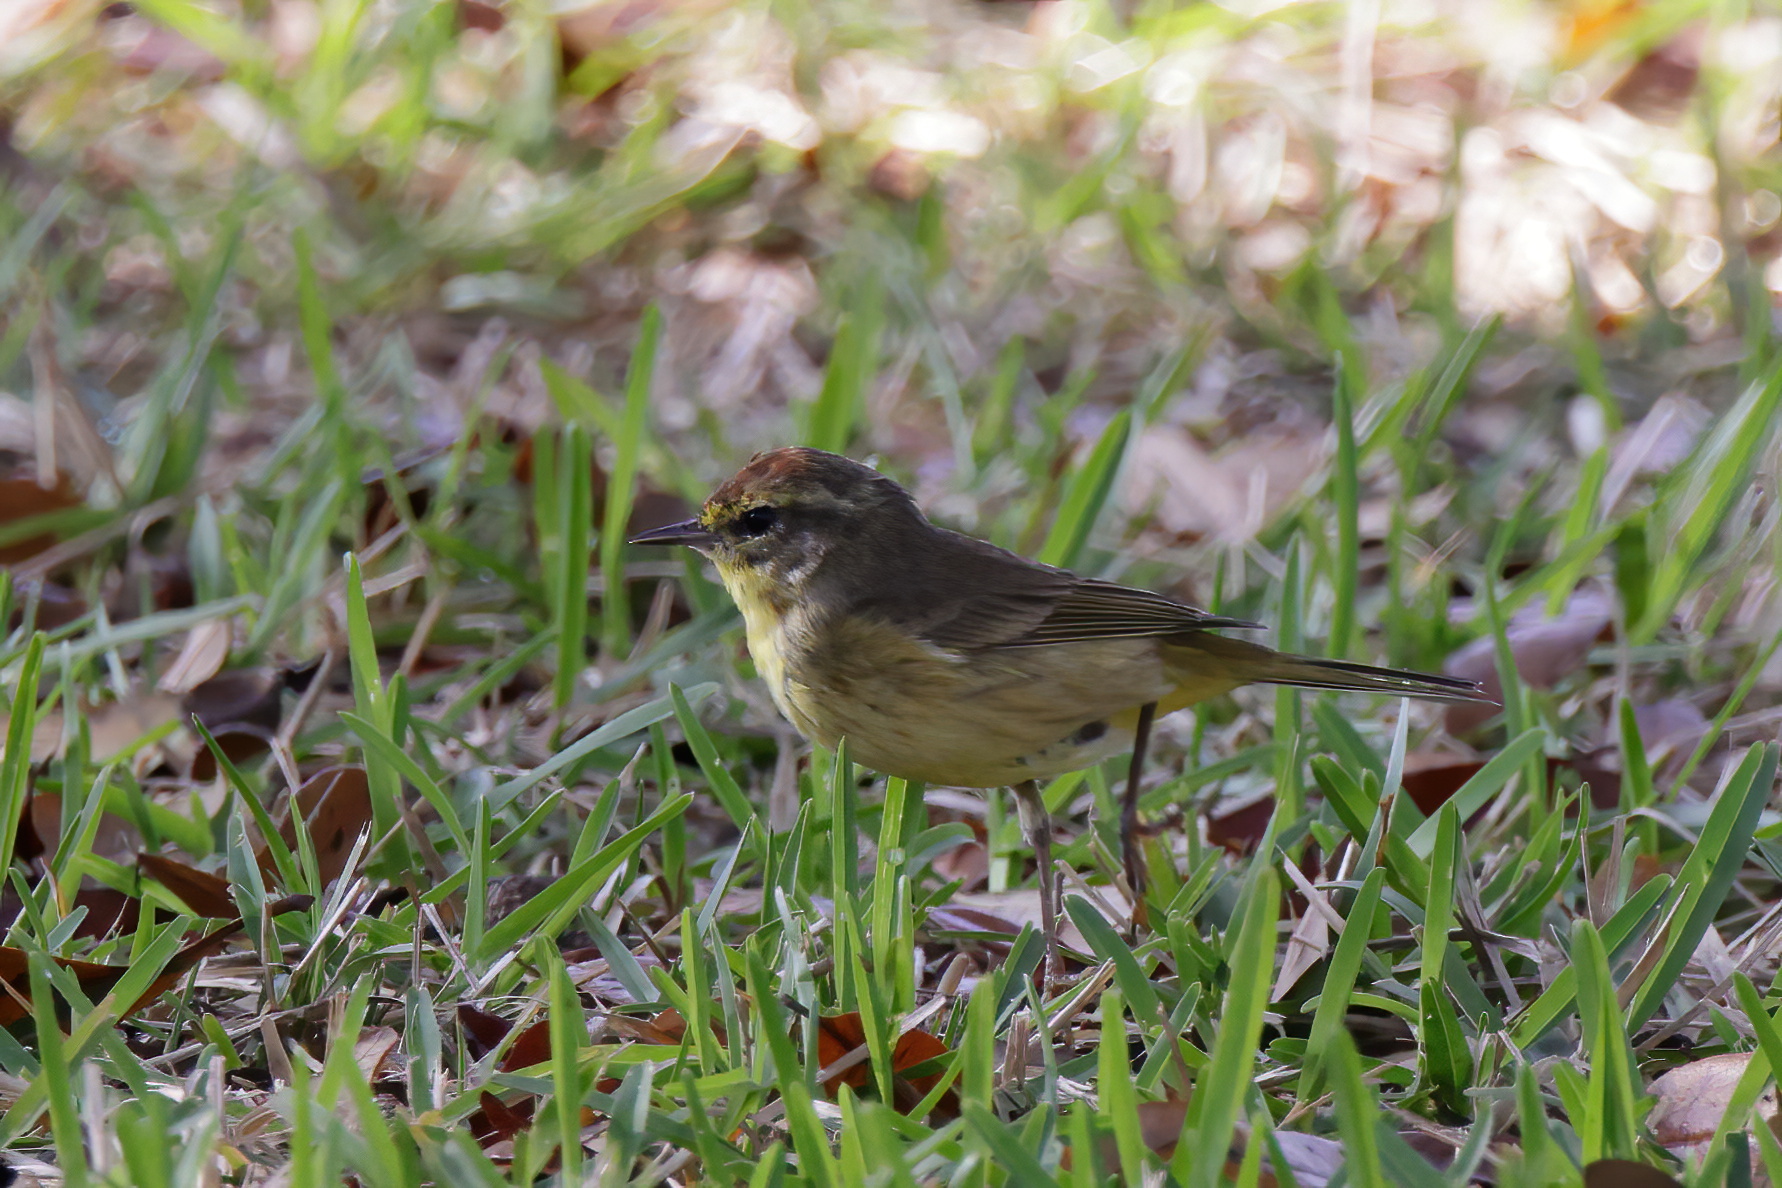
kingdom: Animalia
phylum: Chordata
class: Aves
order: Passeriformes
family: Parulidae
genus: Setophaga
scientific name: Setophaga palmarum
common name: Palm warbler
